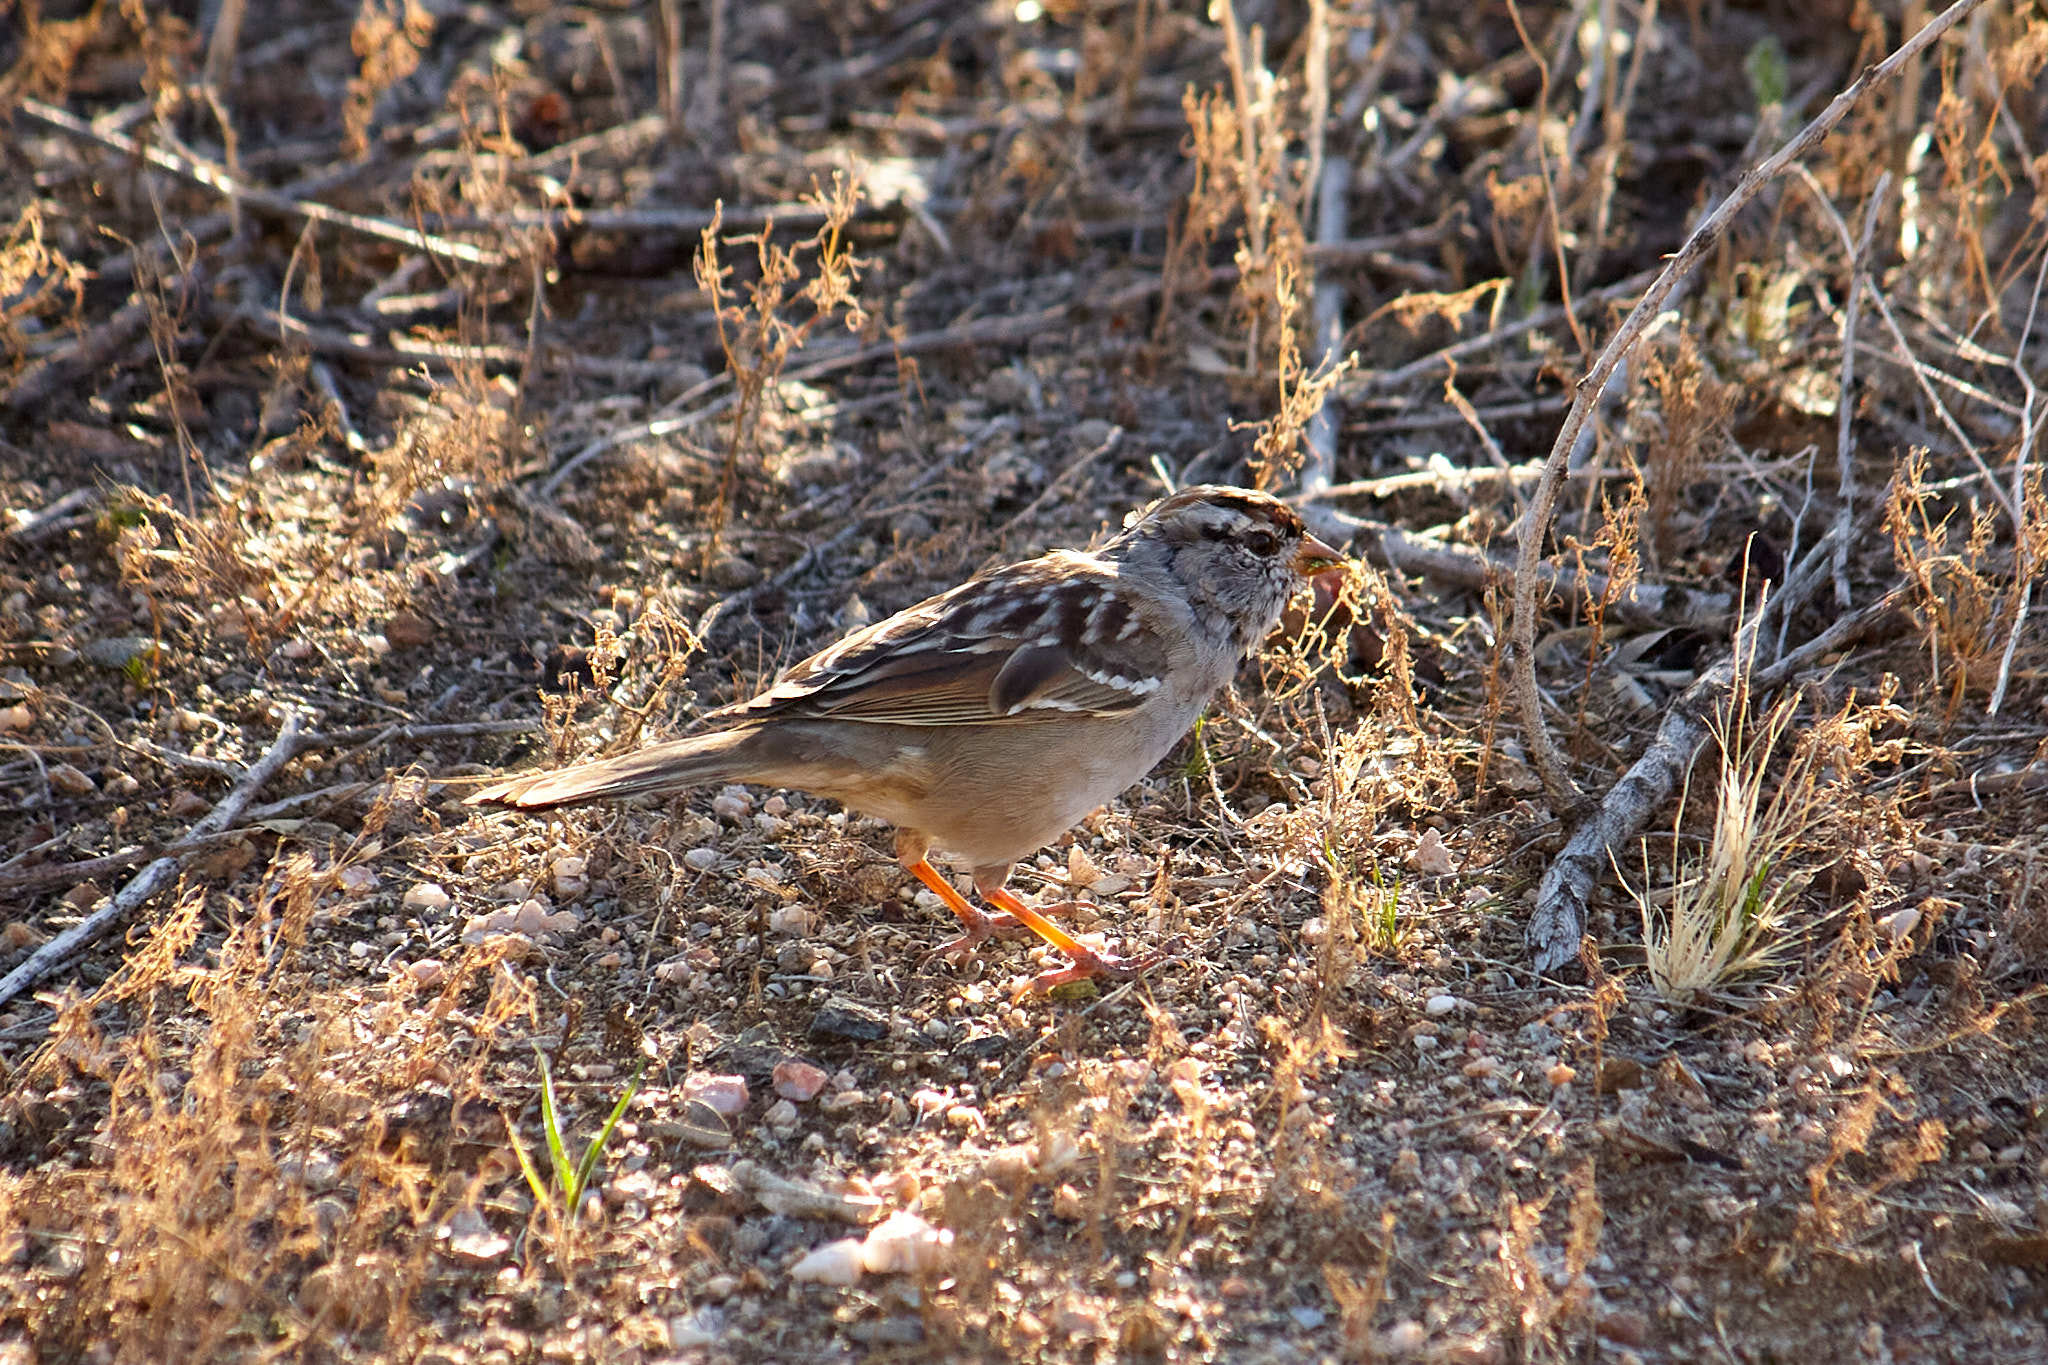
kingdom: Animalia
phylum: Chordata
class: Aves
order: Passeriformes
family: Passerellidae
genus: Zonotrichia
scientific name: Zonotrichia leucophrys
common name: White-crowned sparrow
